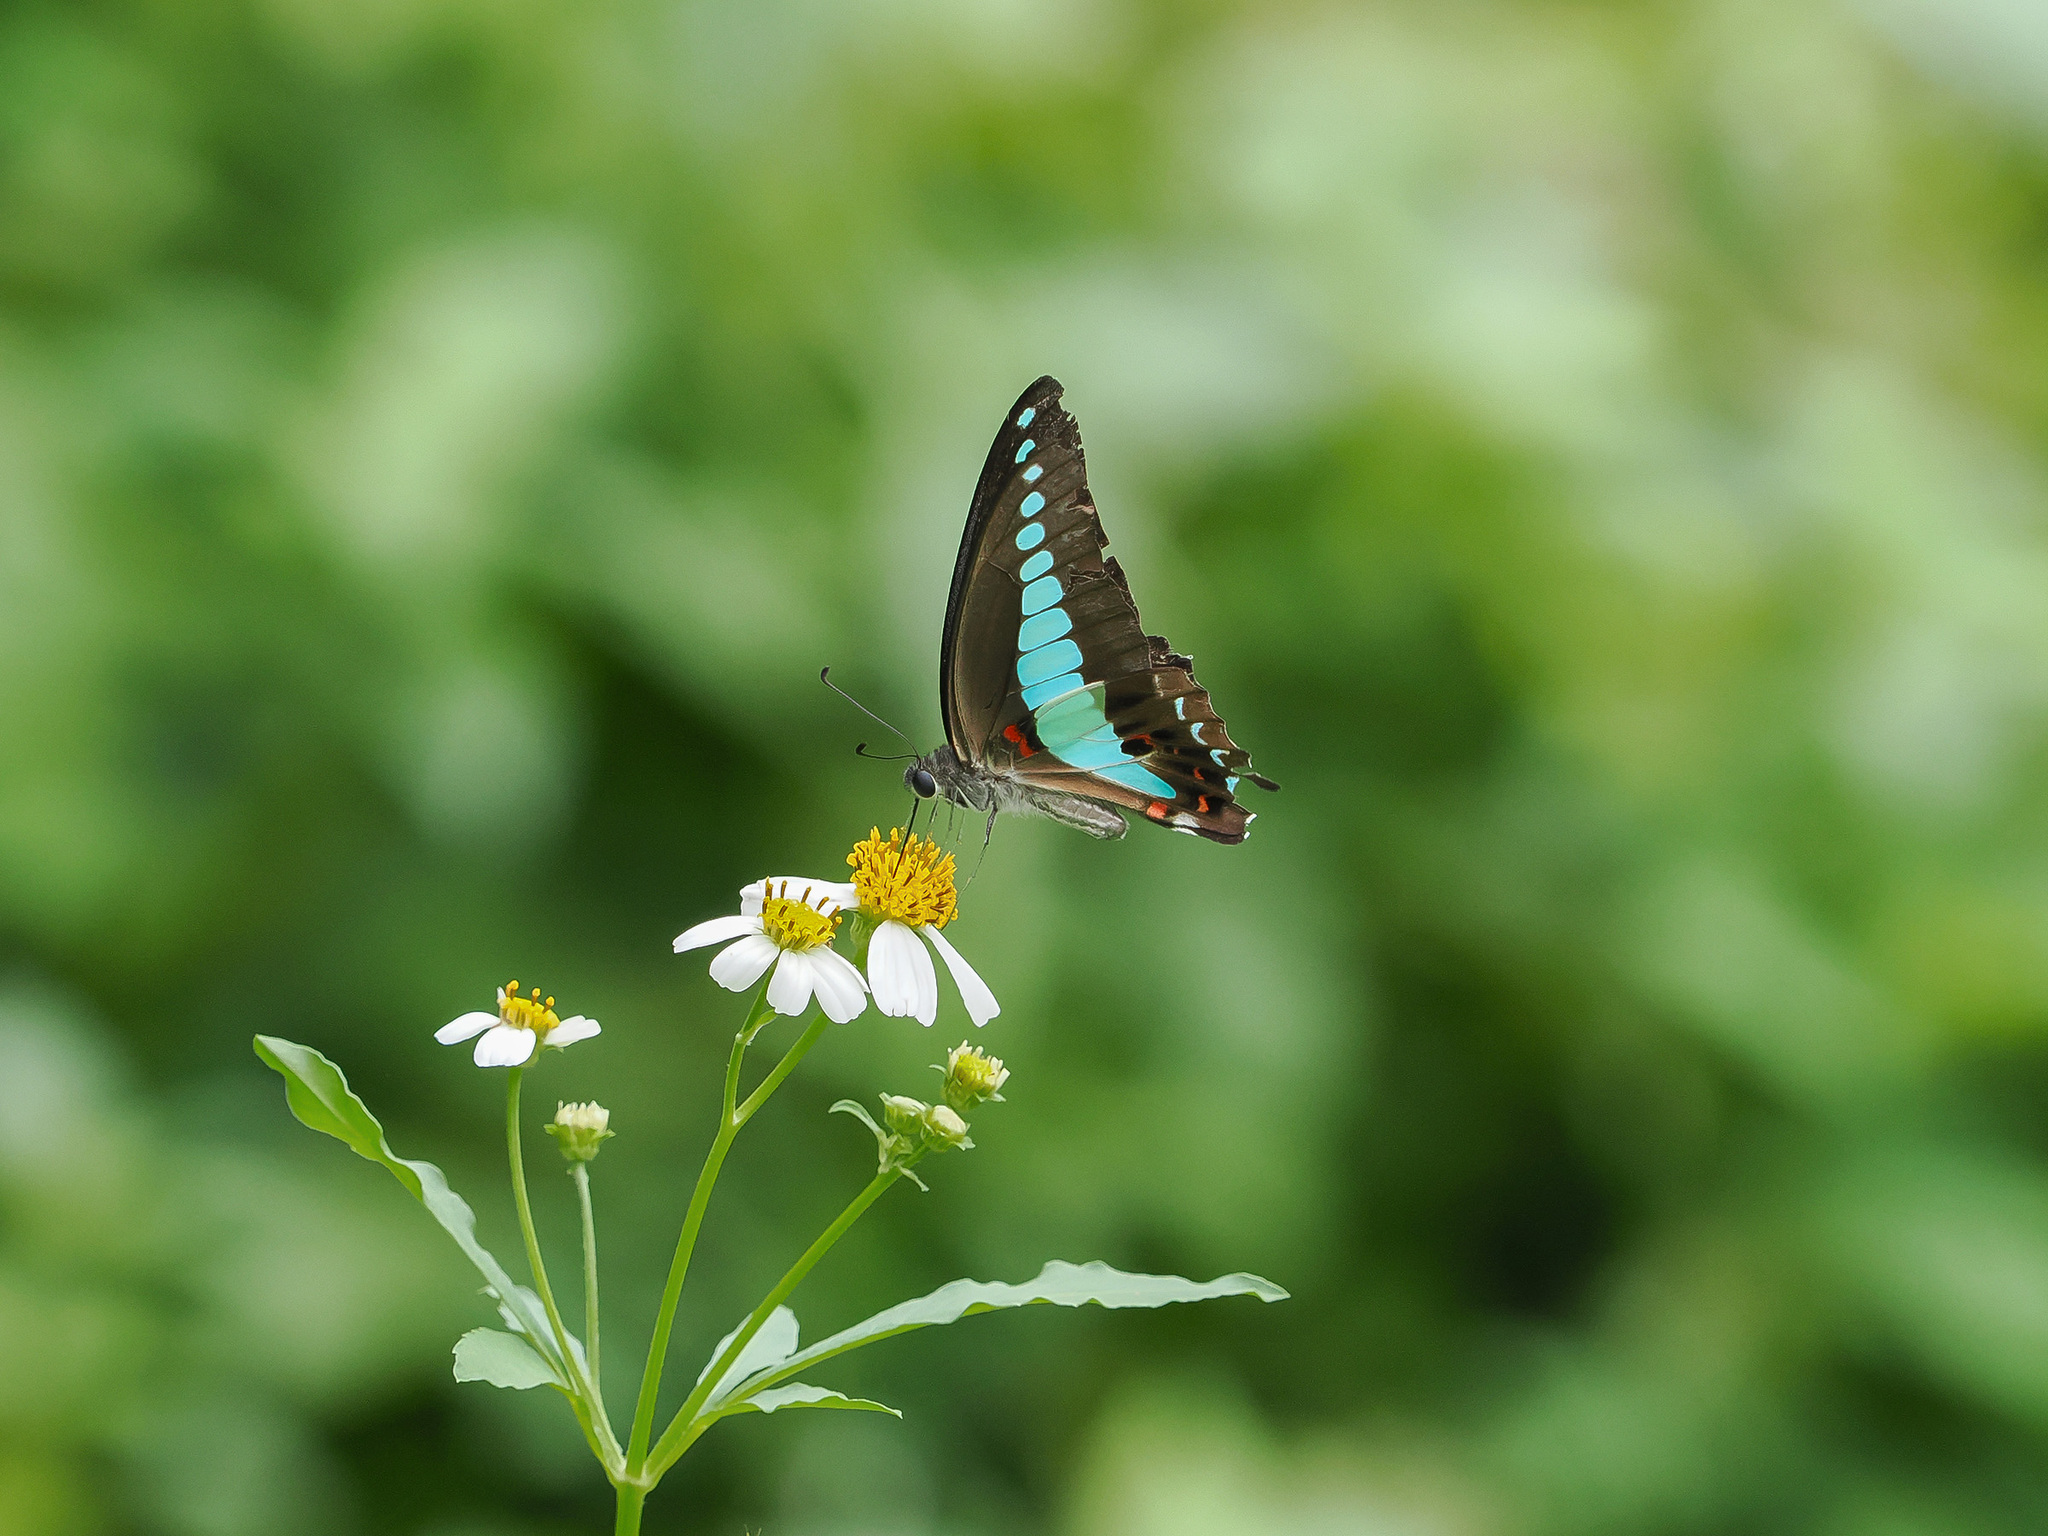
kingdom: Fungi
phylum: Ascomycota
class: Sordariomycetes
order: Microascales
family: Microascaceae
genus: Graphium
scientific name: Graphium sarpedon
